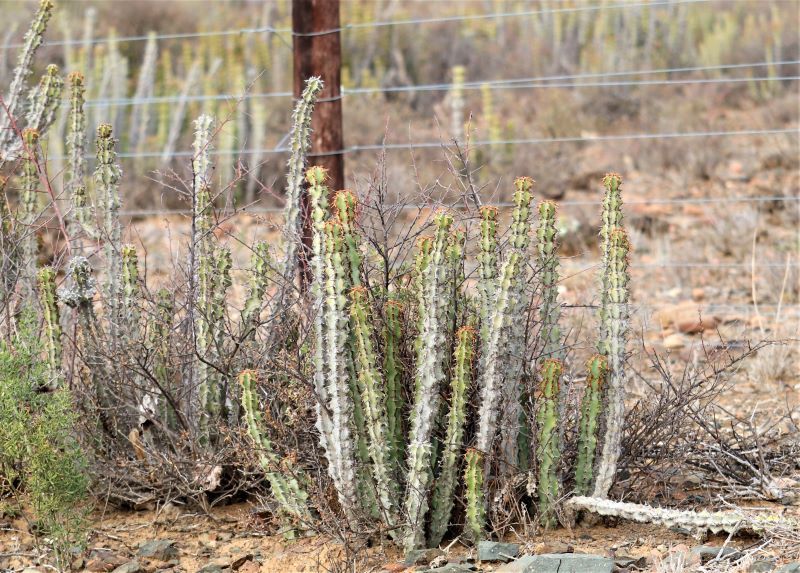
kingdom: Plantae
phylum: Tracheophyta
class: Magnoliopsida
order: Malpighiales
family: Euphorbiaceae
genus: Euphorbia
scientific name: Euphorbia radyeri
